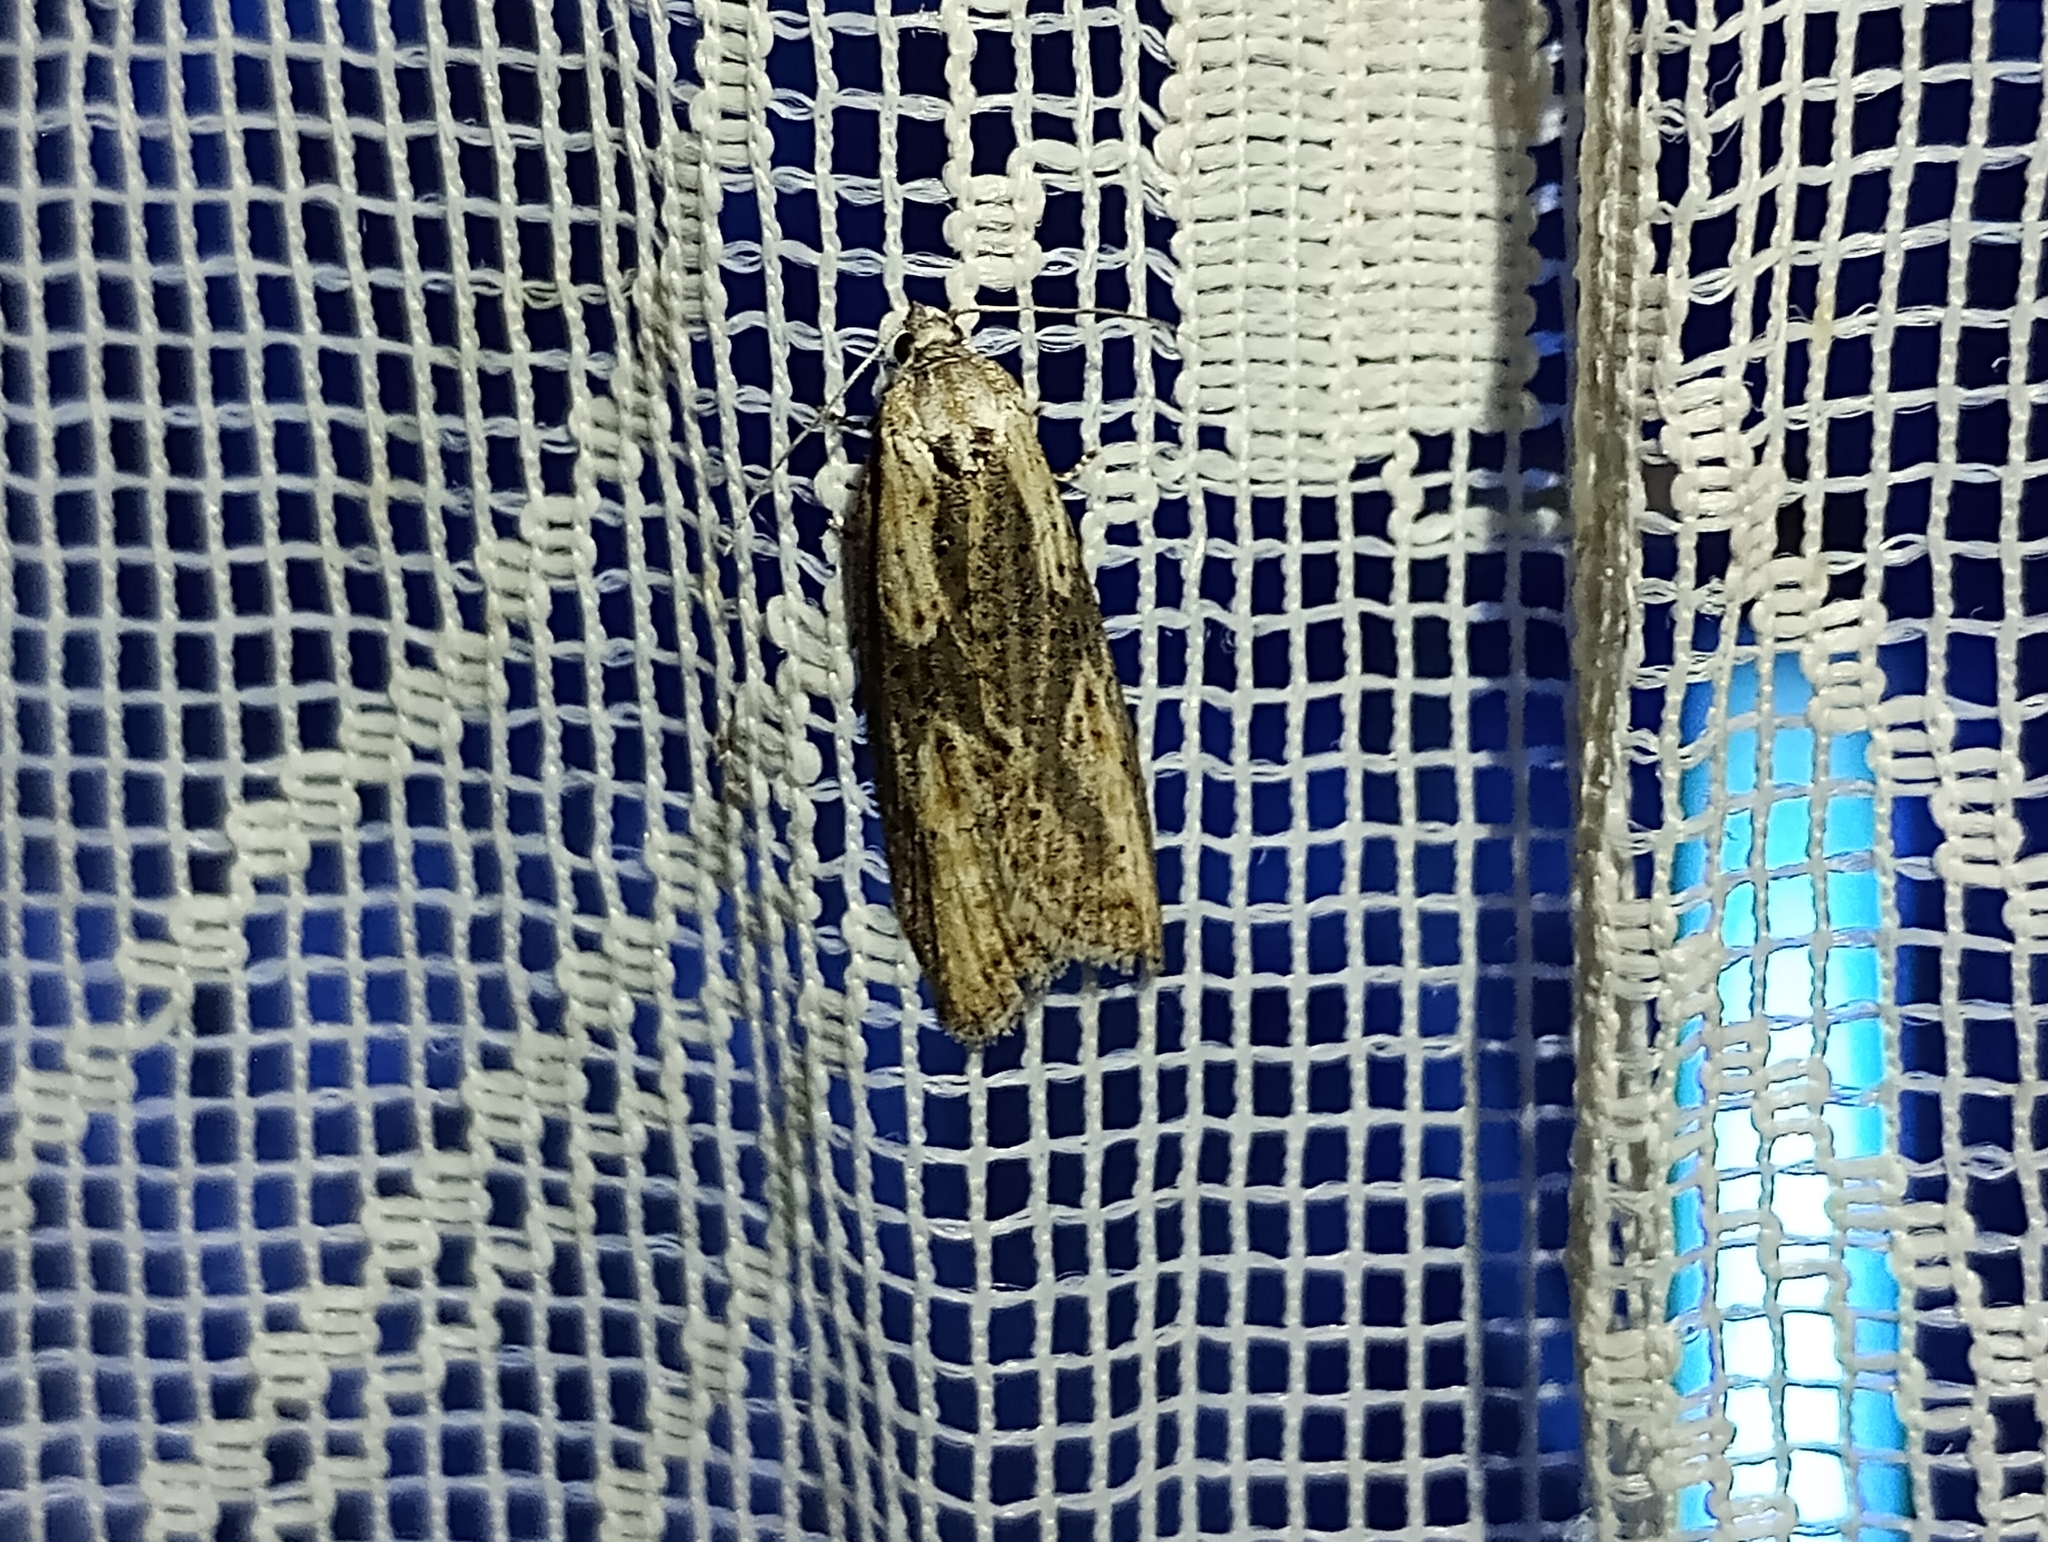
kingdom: Animalia
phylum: Arthropoda
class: Insecta
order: Lepidoptera
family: Tortricidae
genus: Doloploca
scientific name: Doloploca punctulana
